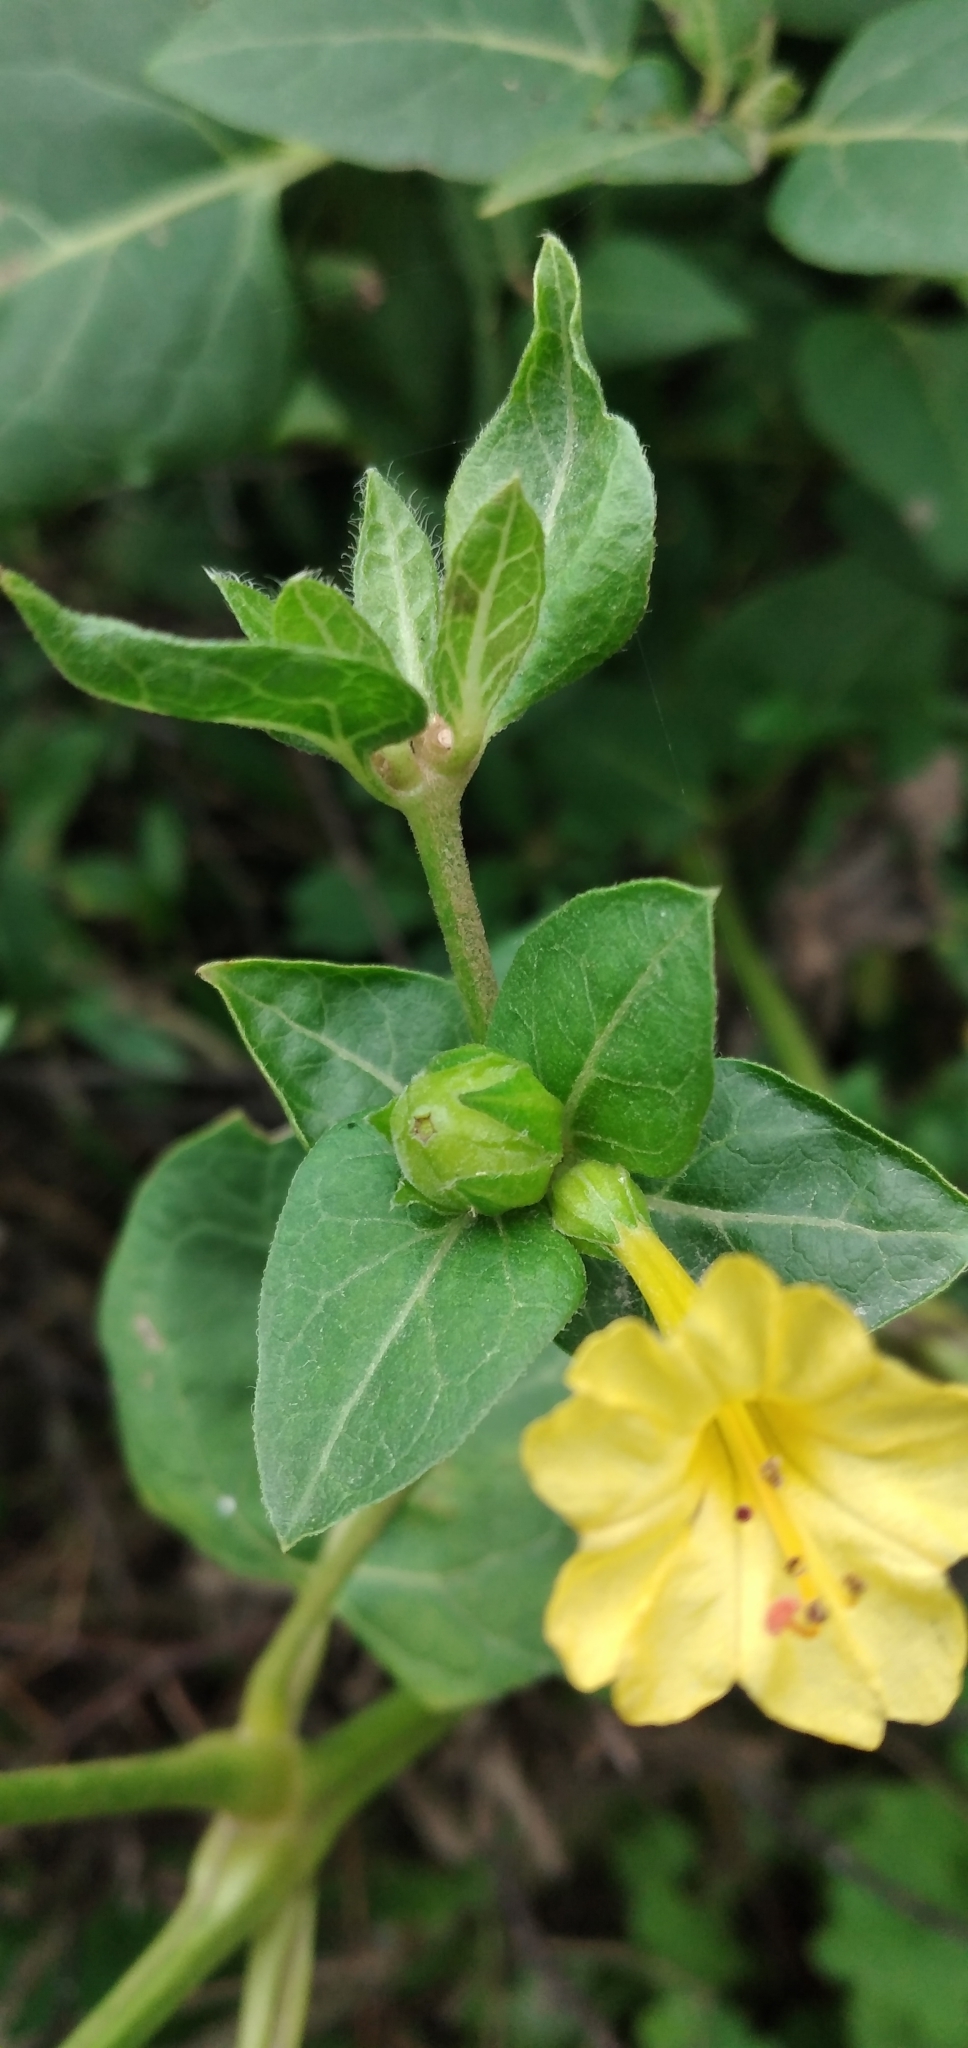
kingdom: Plantae
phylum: Tracheophyta
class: Magnoliopsida
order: Caryophyllales
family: Nyctaginaceae
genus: Mirabilis
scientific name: Mirabilis jalapa
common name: Marvel-of-peru
